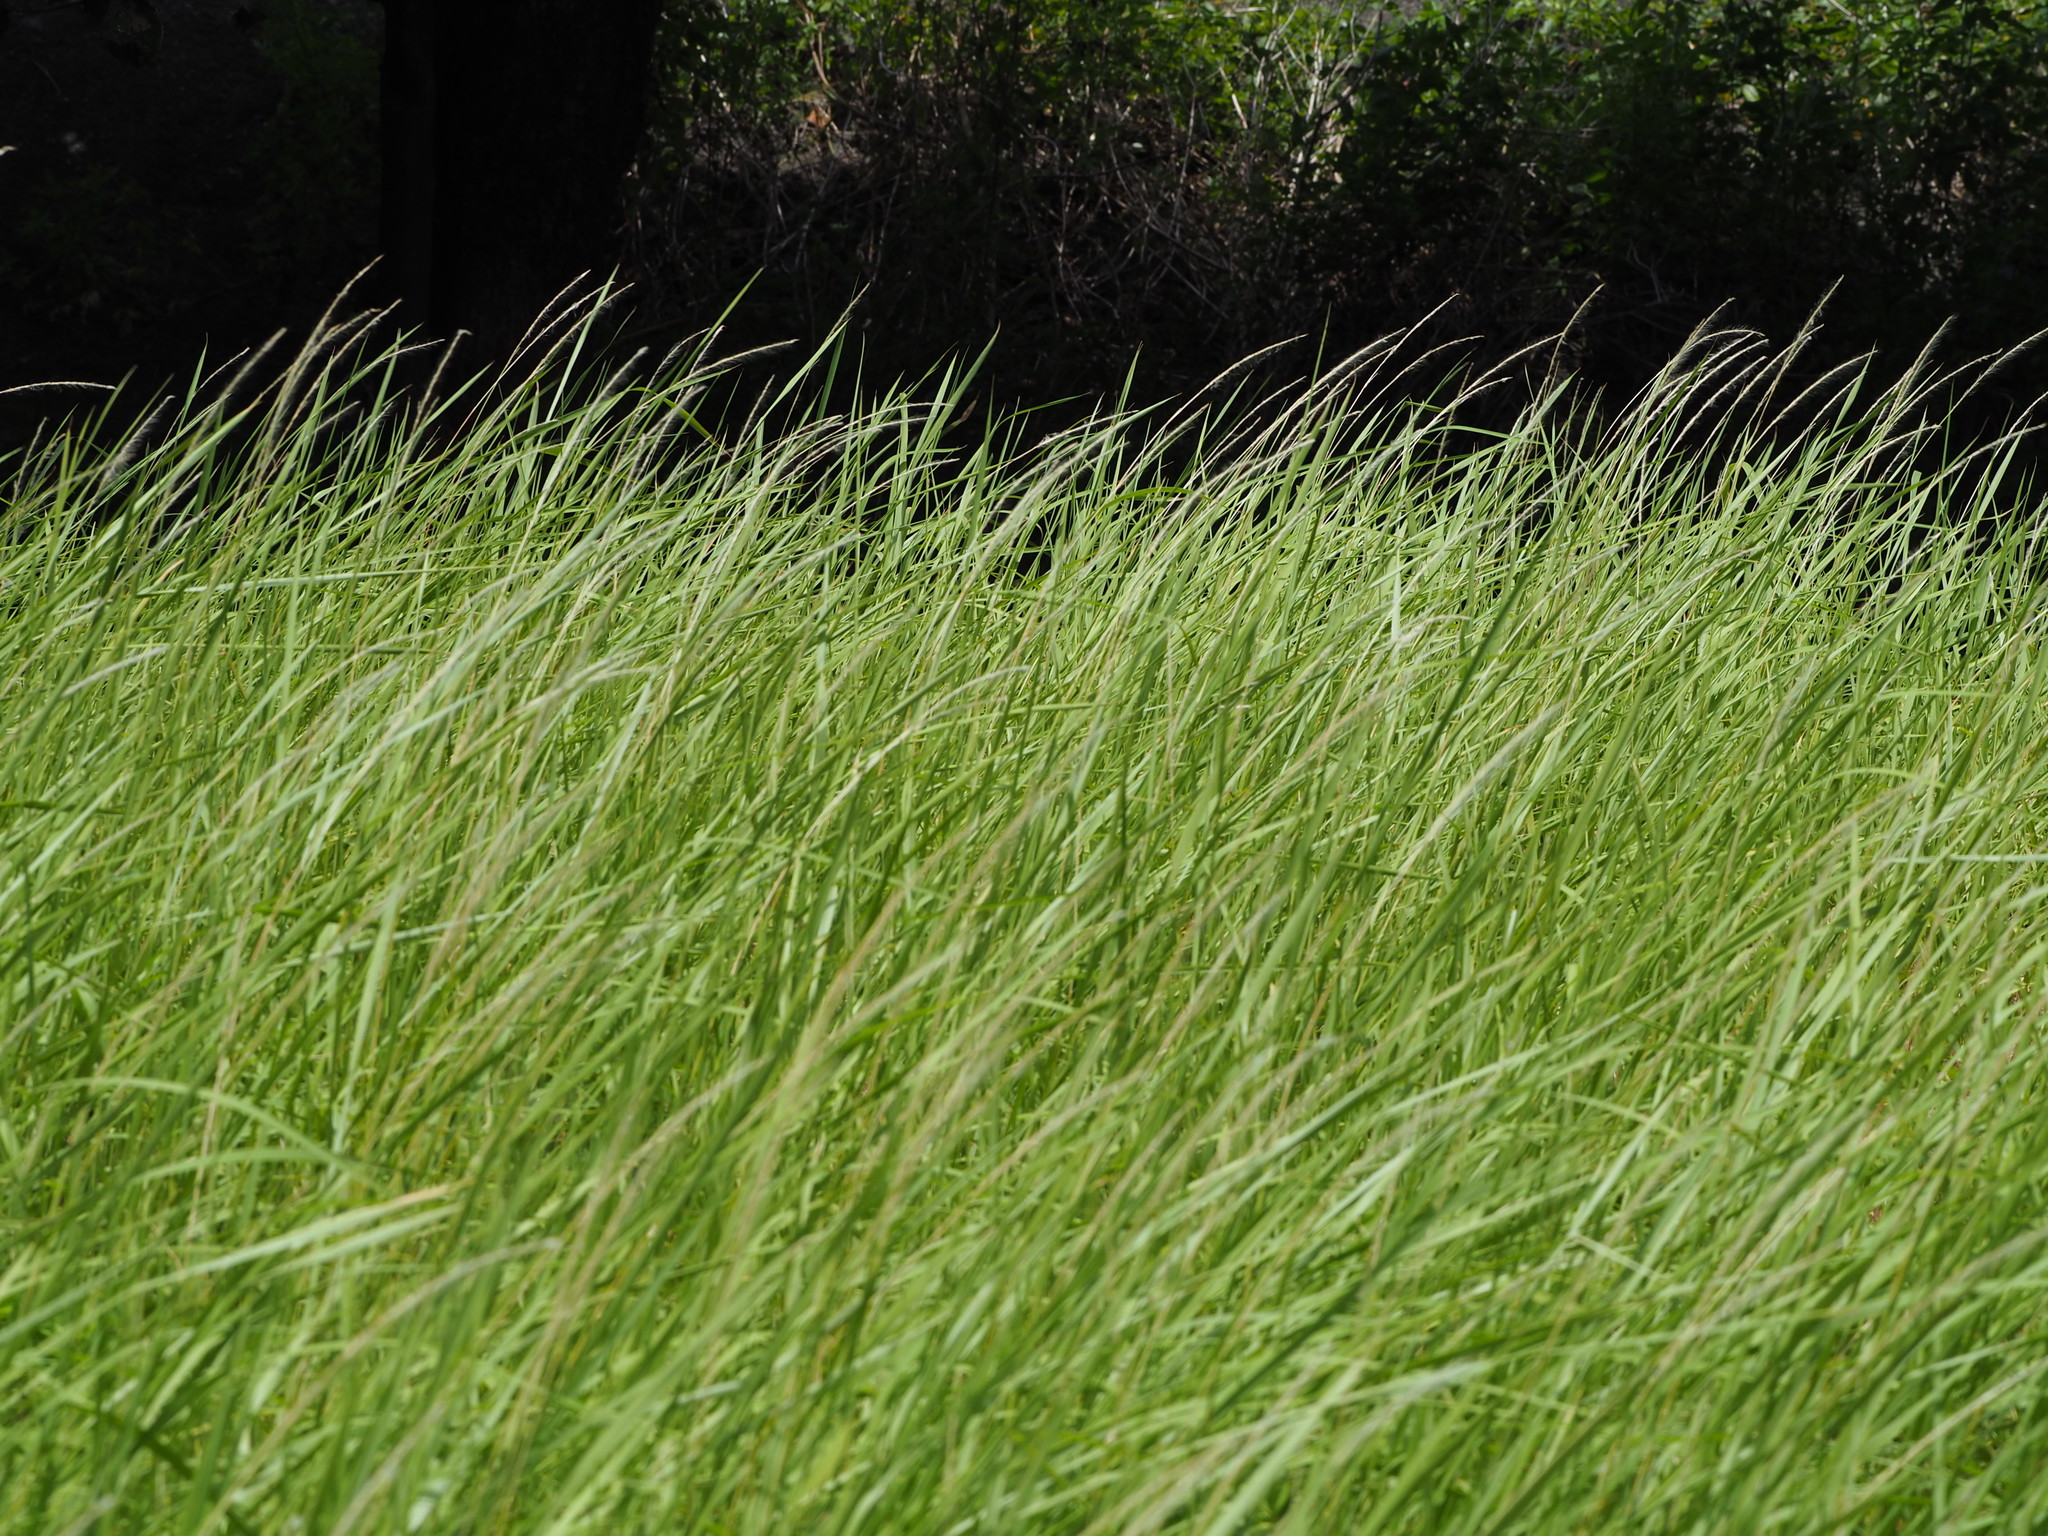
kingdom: Plantae
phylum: Tracheophyta
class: Liliopsida
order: Poales
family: Poaceae
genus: Imperata
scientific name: Imperata cylindrica
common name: Cogongrass
